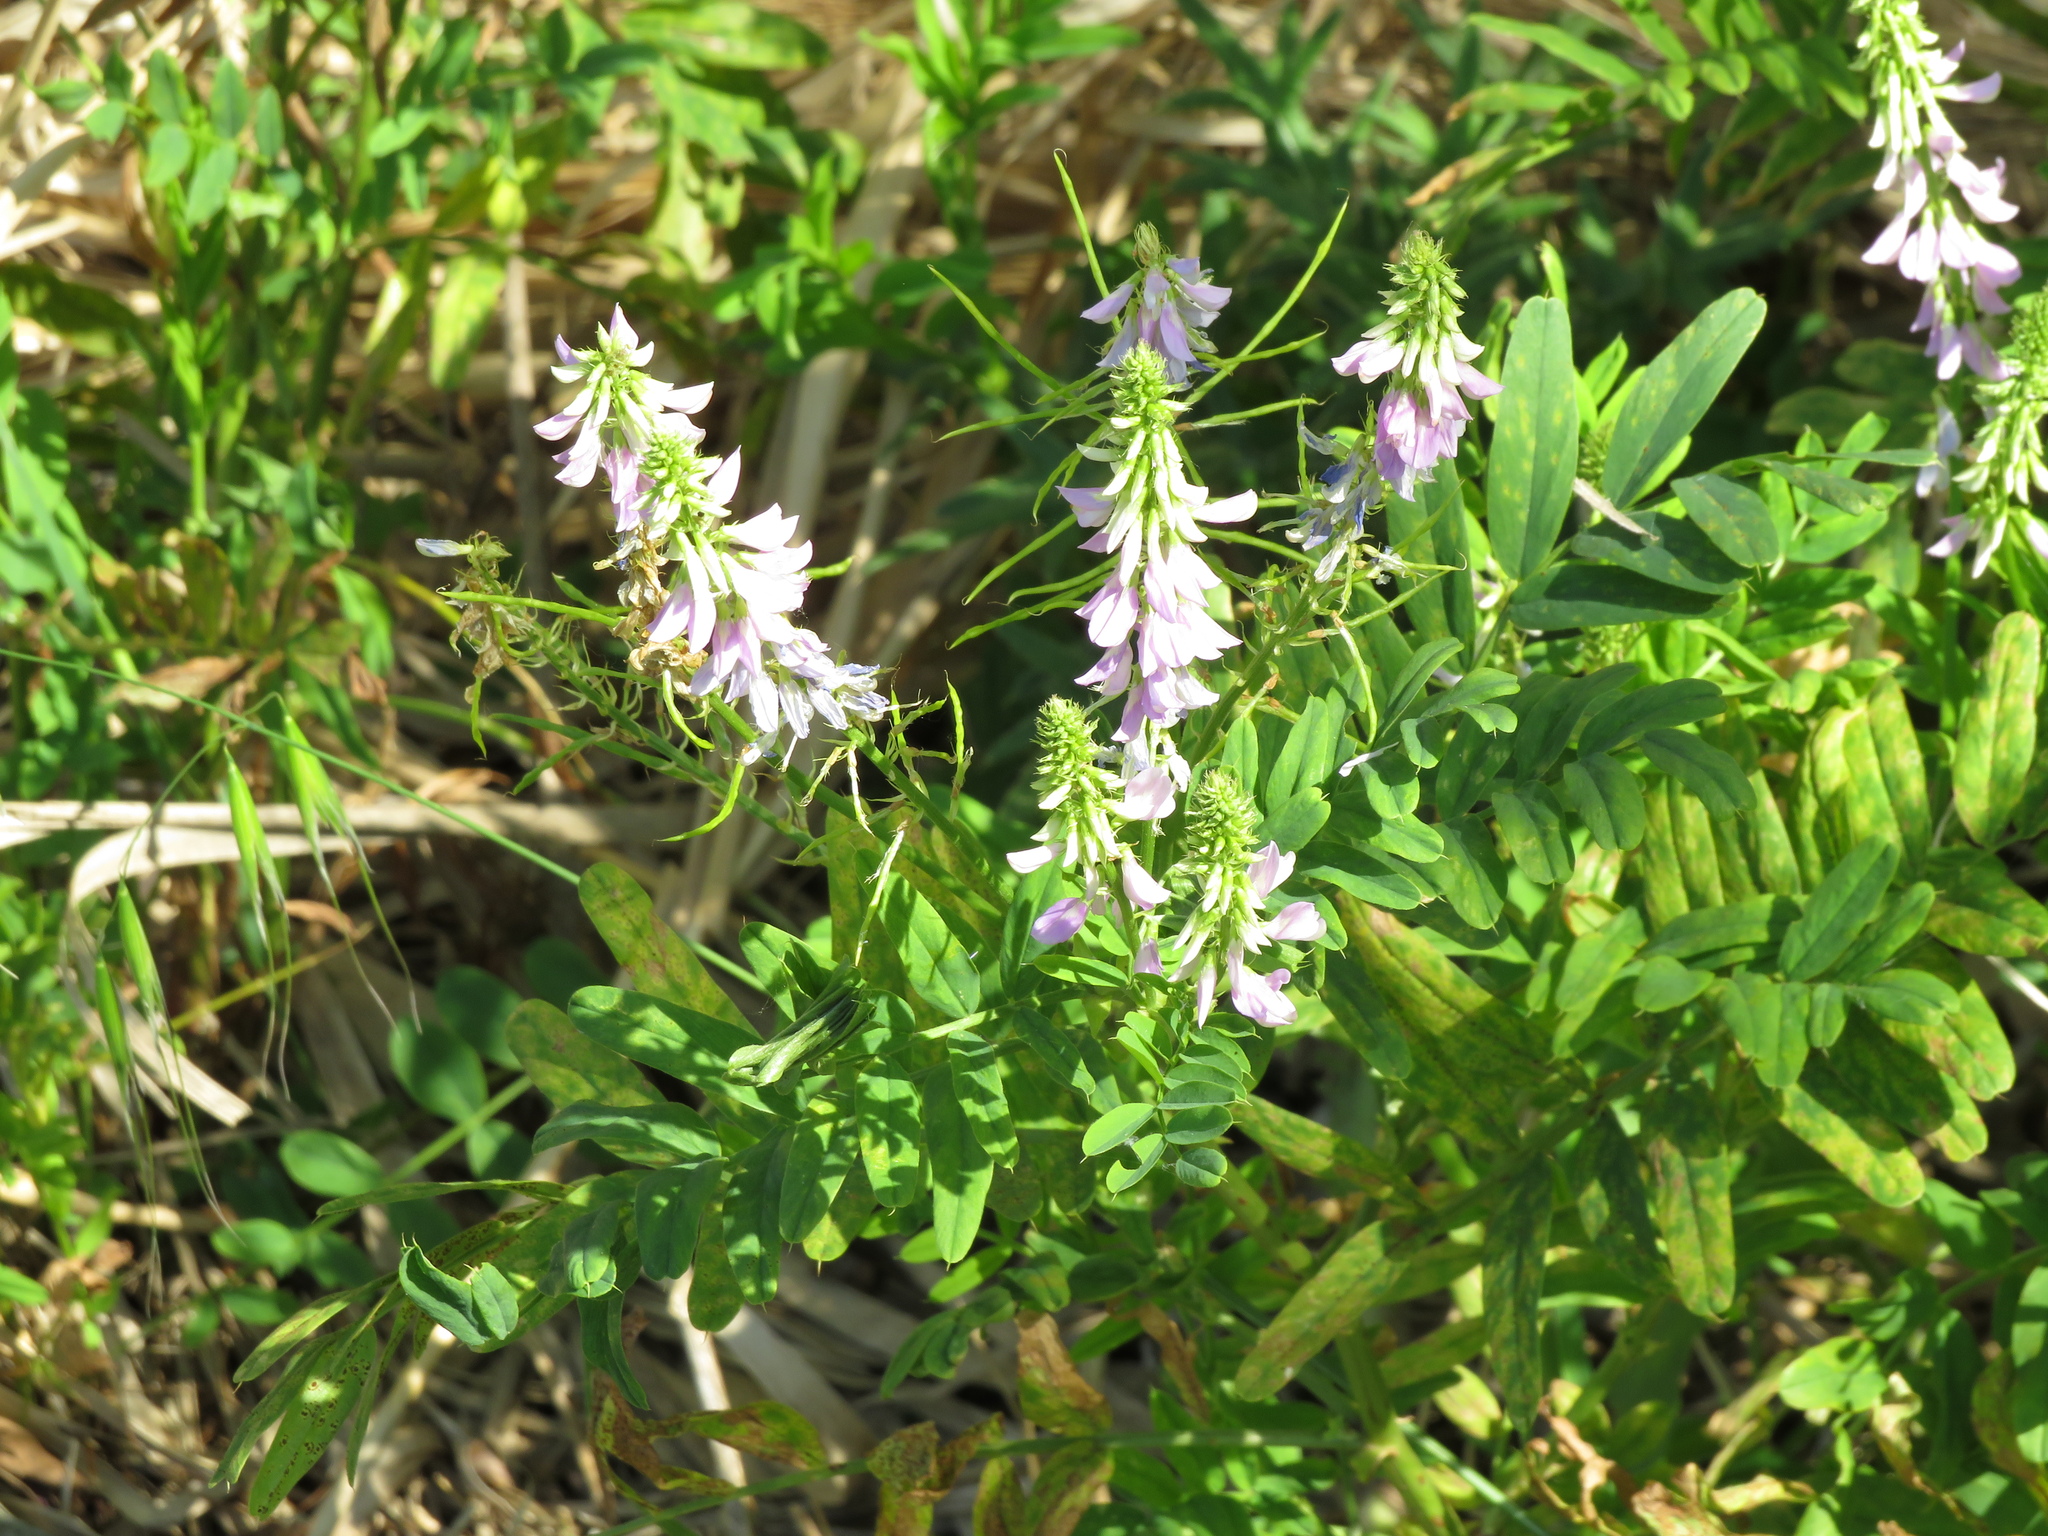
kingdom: Plantae
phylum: Tracheophyta
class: Magnoliopsida
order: Fabales
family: Fabaceae
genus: Galega
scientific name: Galega officinalis
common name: Goat's-rue
